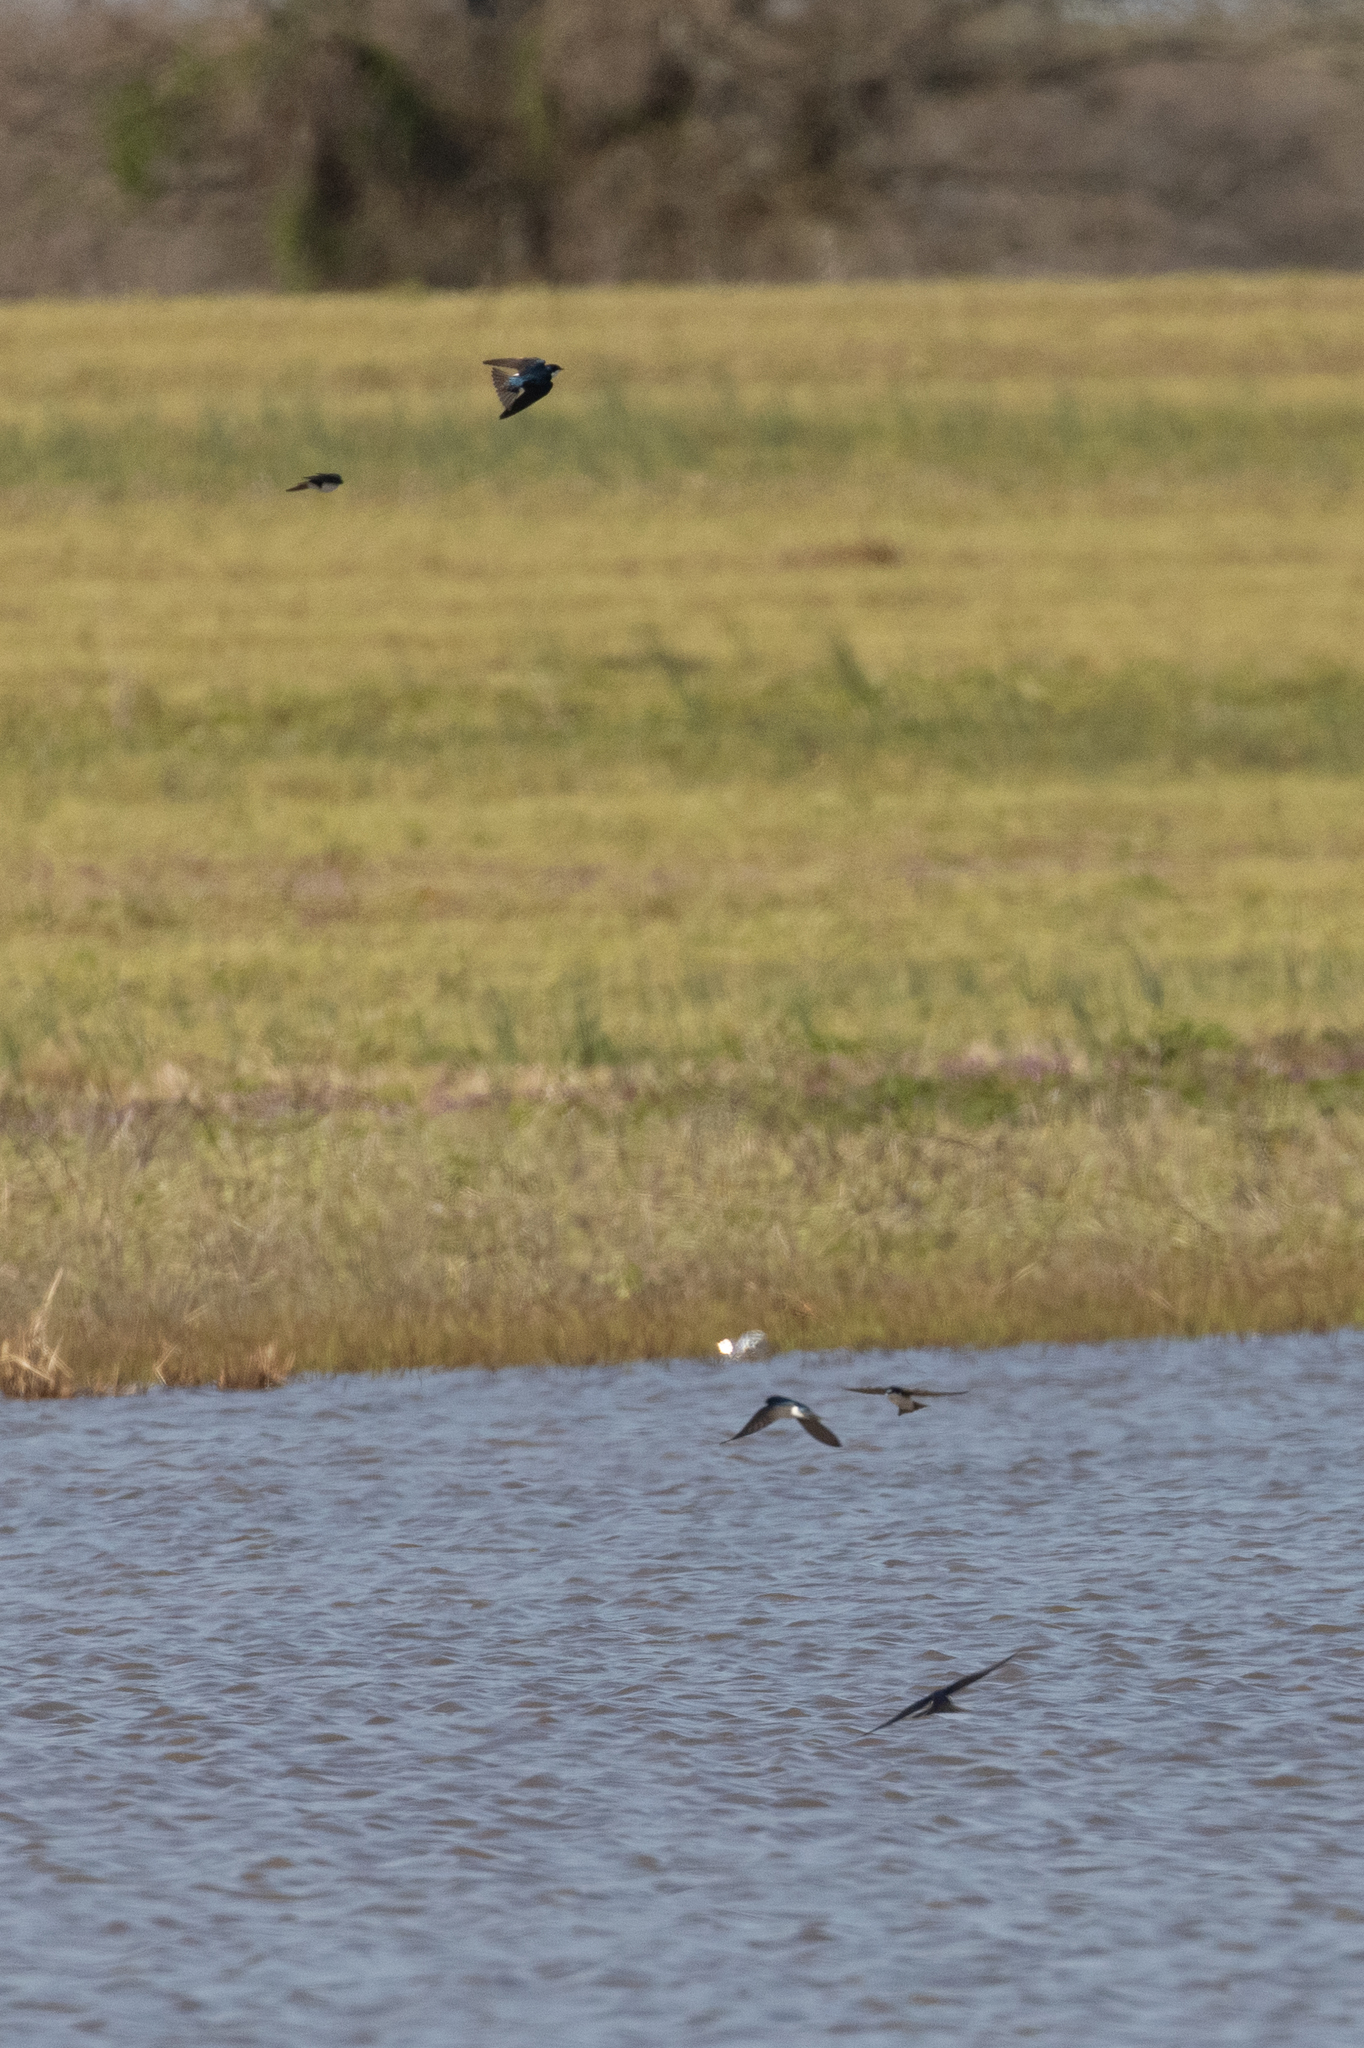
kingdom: Animalia
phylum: Chordata
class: Aves
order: Passeriformes
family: Hirundinidae
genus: Tachycineta
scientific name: Tachycineta bicolor
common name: Tree swallow
